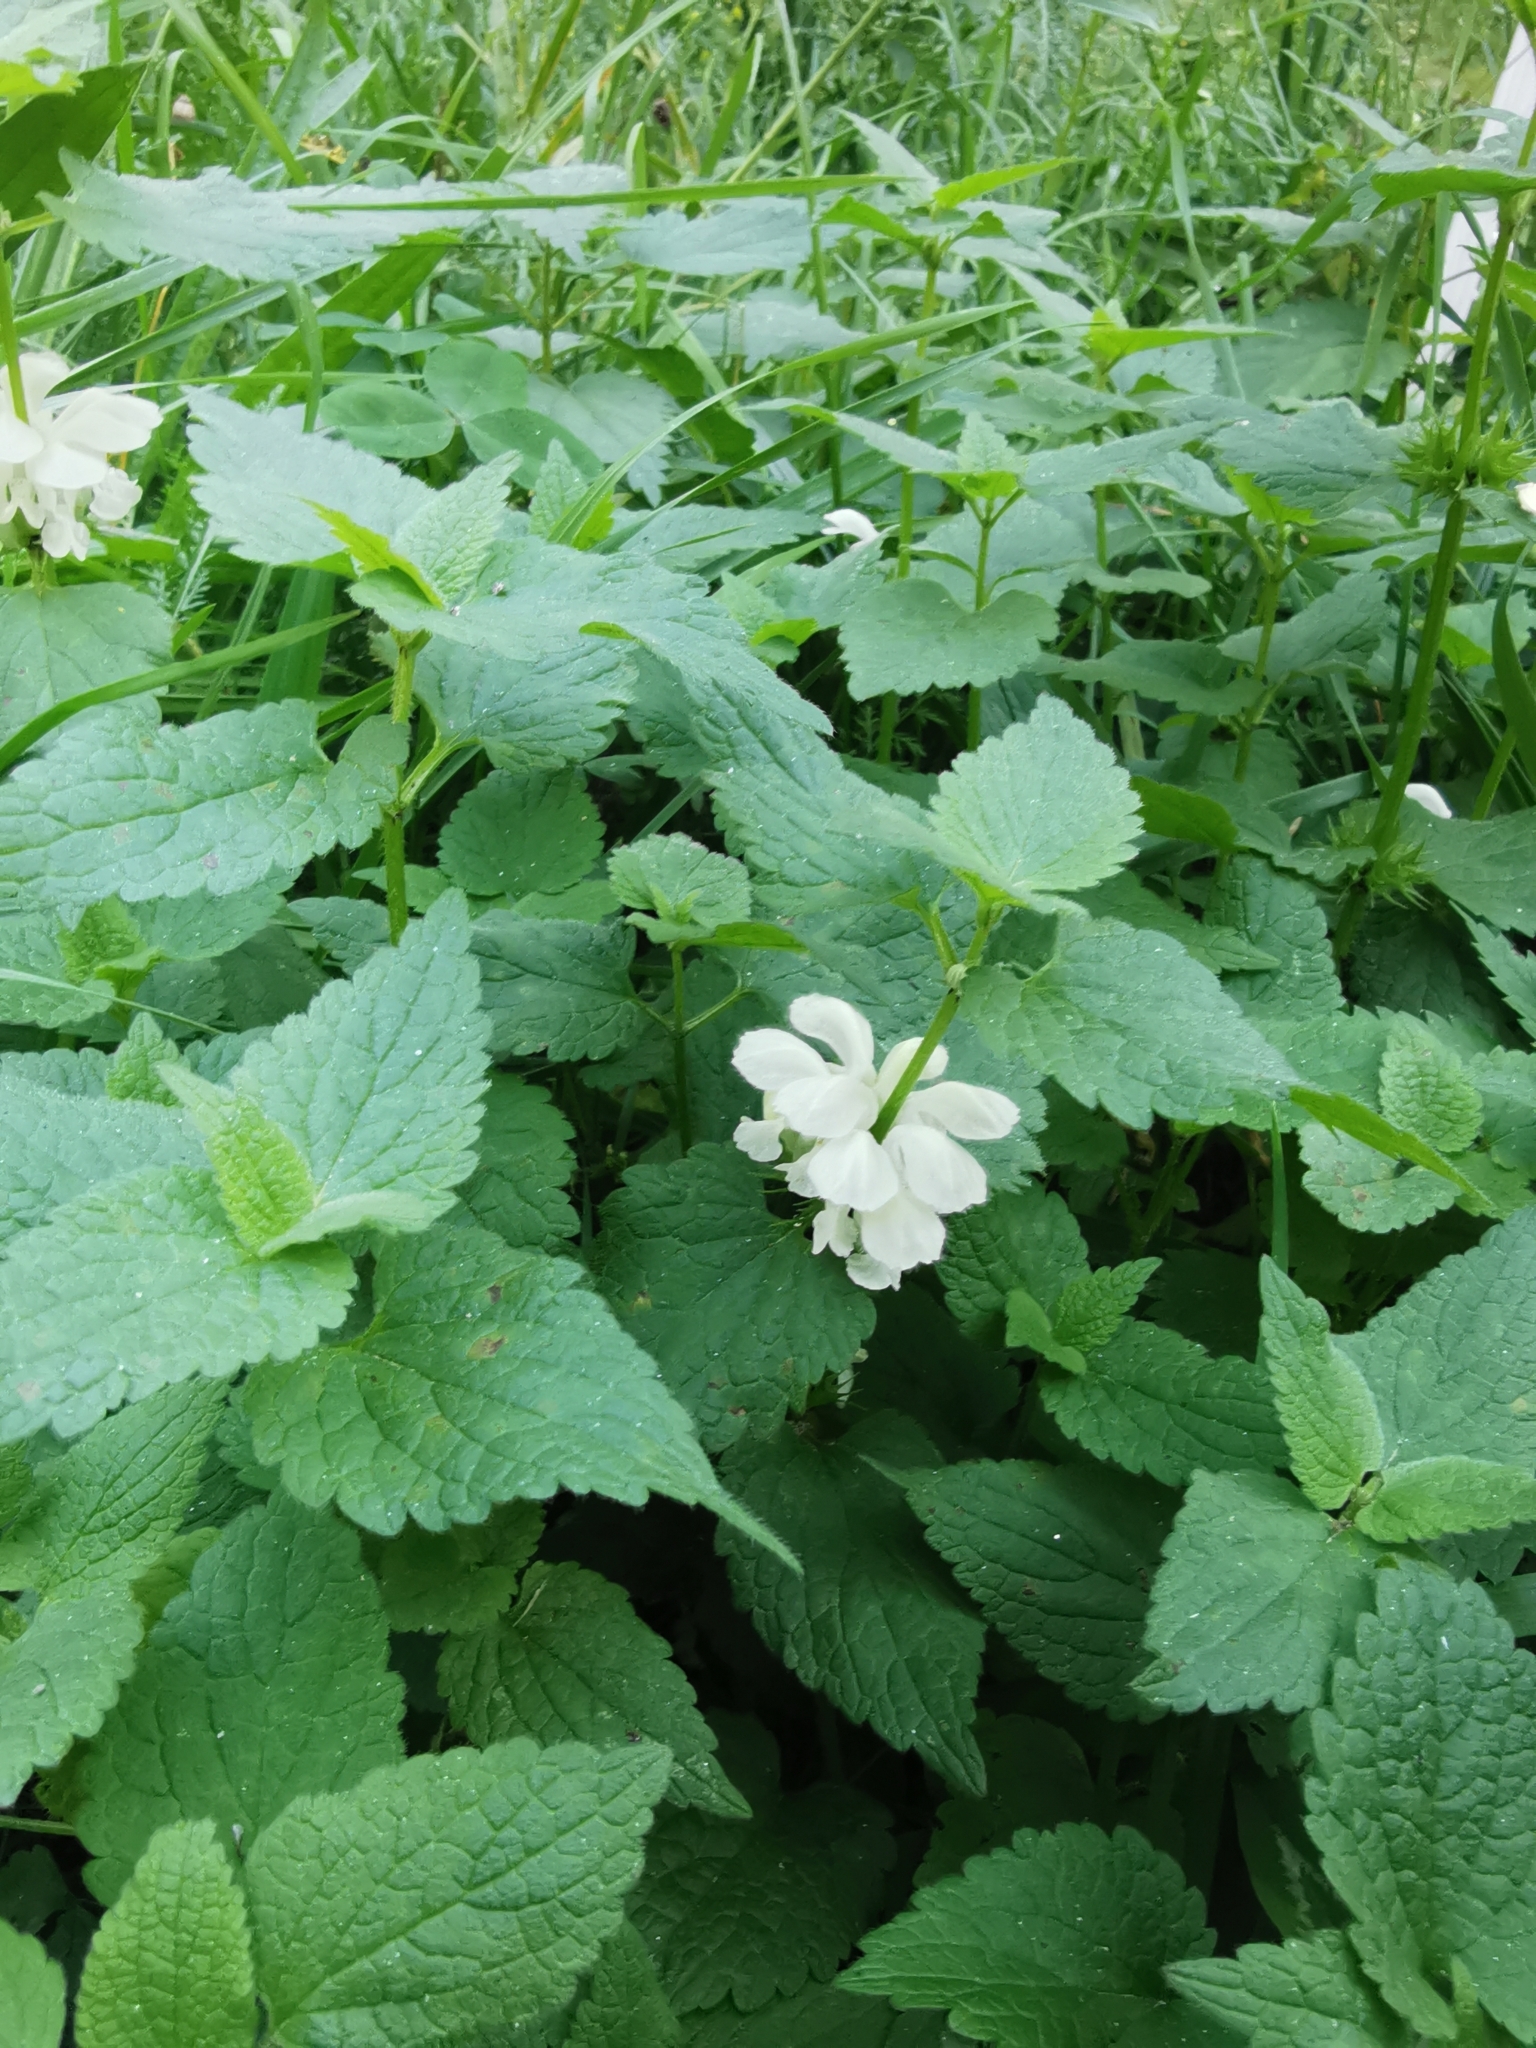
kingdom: Plantae
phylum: Tracheophyta
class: Magnoliopsida
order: Lamiales
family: Lamiaceae
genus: Lamium
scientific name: Lamium album
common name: White dead-nettle
